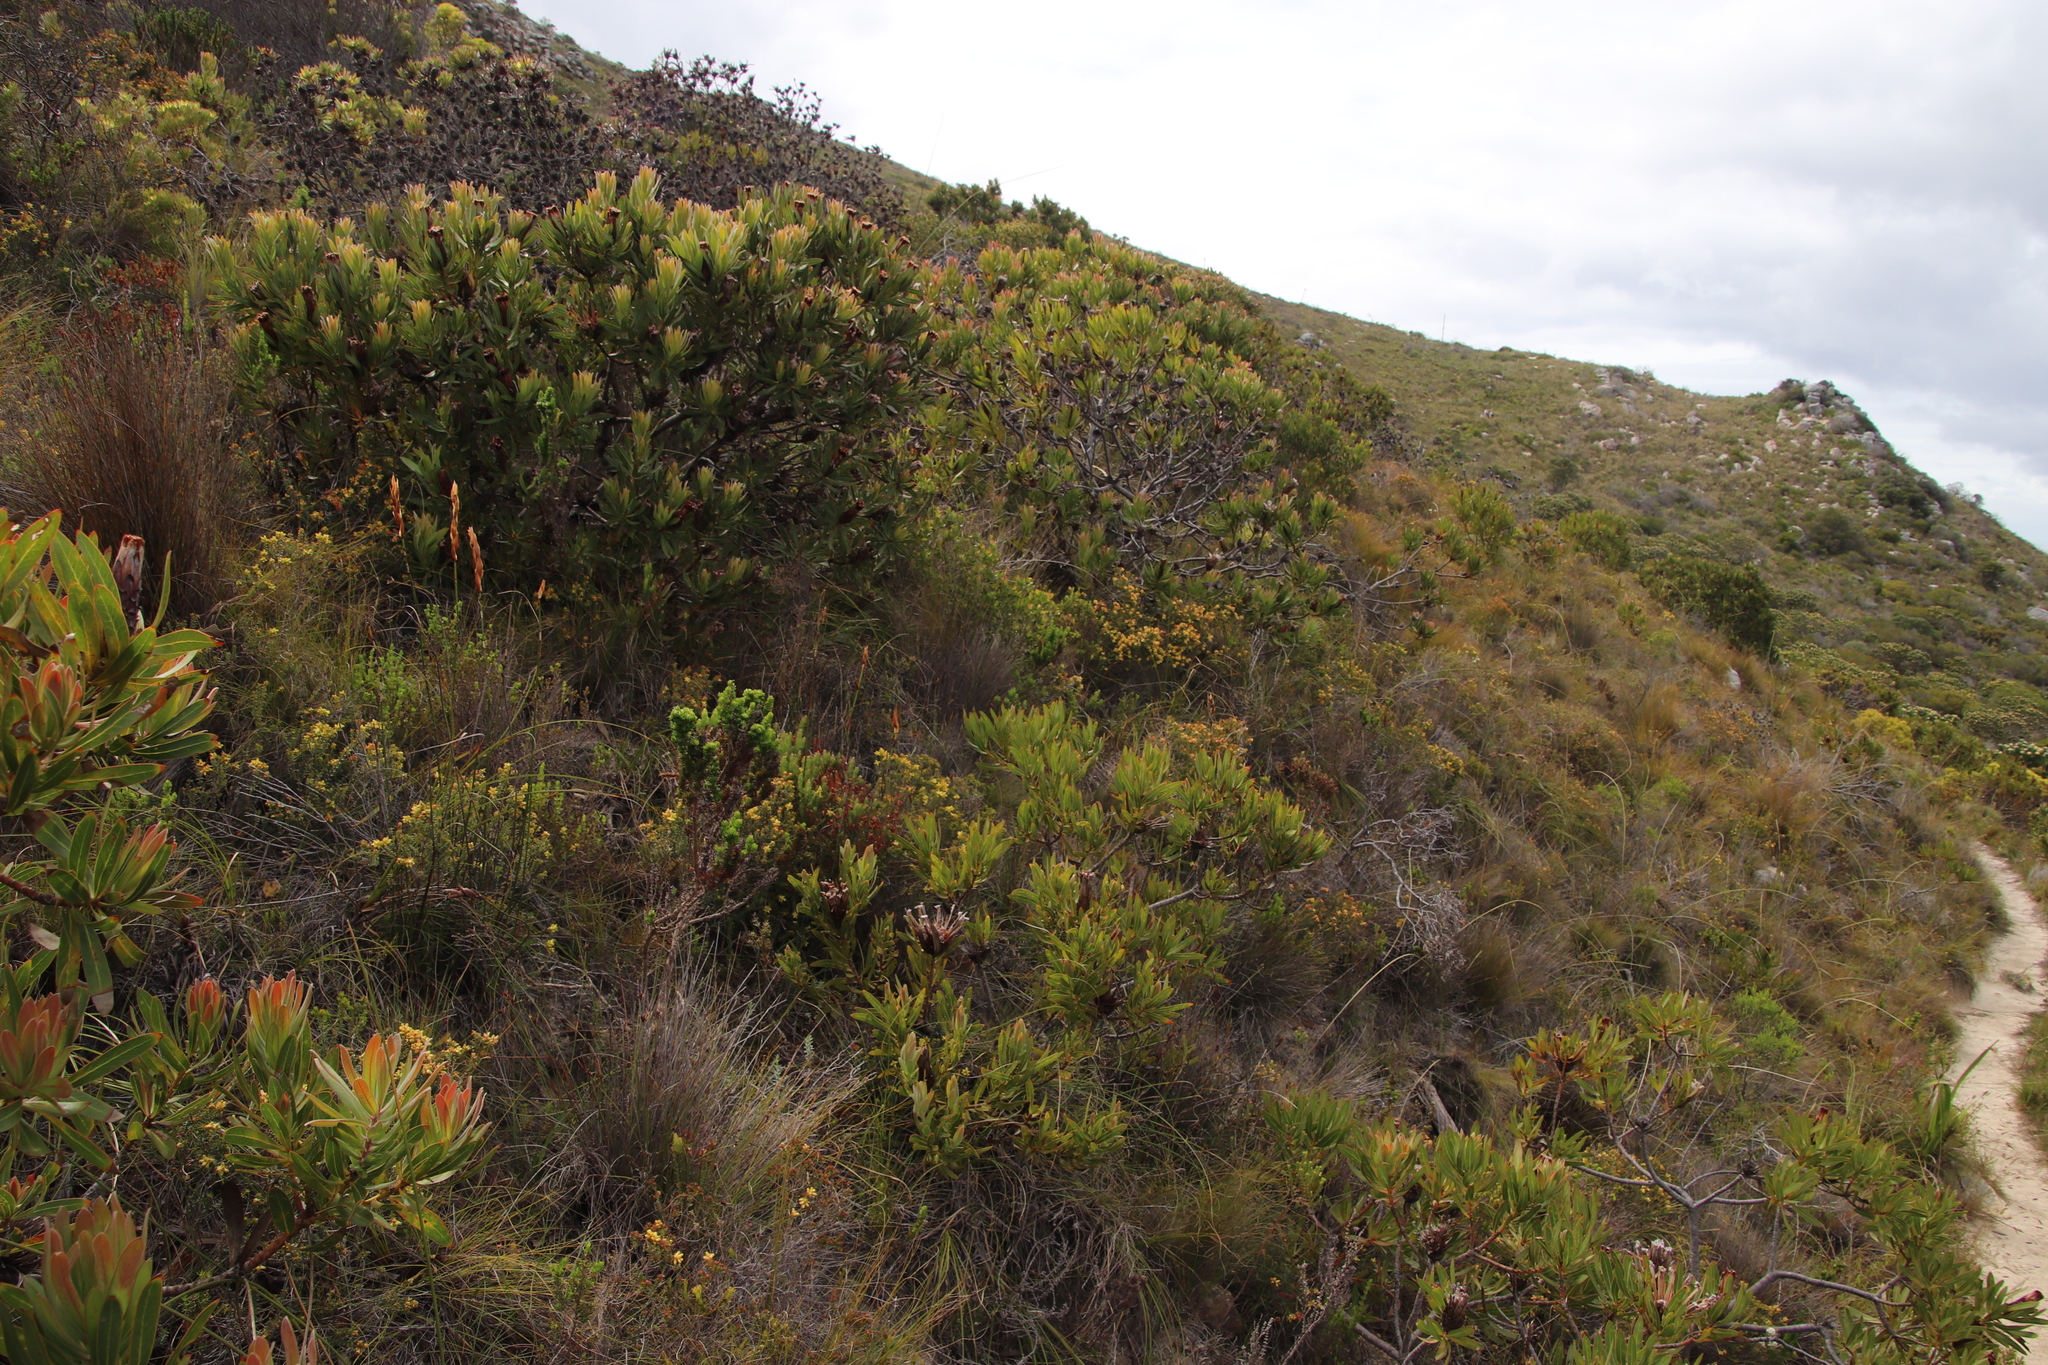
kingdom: Plantae
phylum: Tracheophyta
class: Magnoliopsida
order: Proteales
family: Proteaceae
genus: Protea
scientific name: Protea lepidocarpodendron
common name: Black-bearded protea
